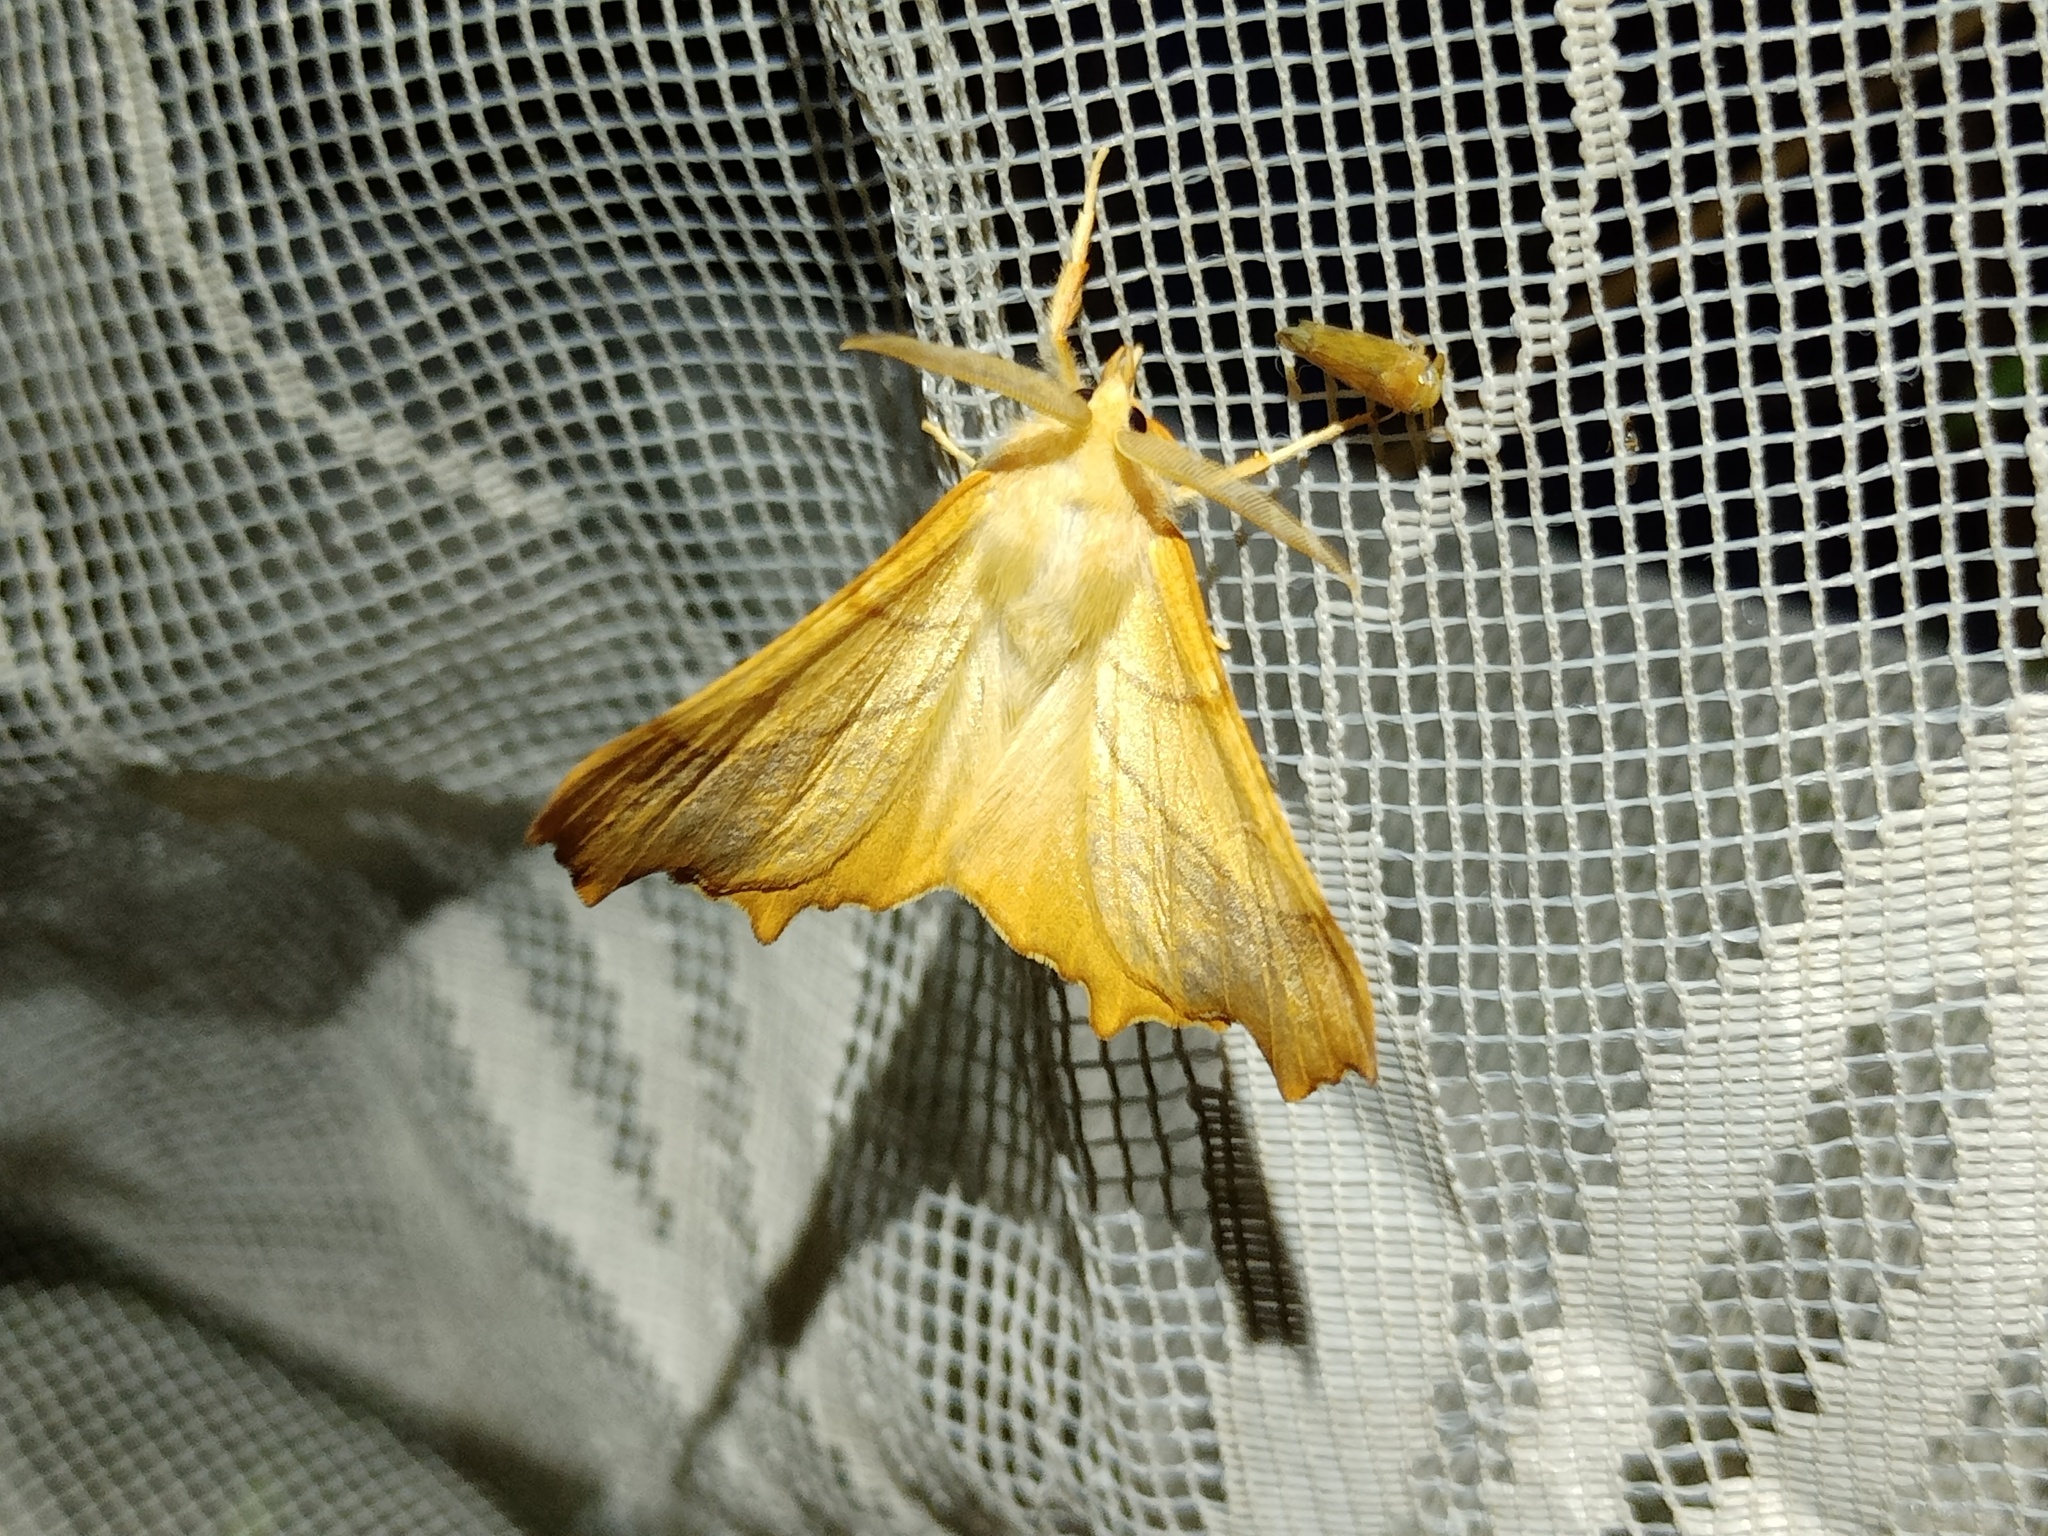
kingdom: Animalia
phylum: Arthropoda
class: Insecta
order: Lepidoptera
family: Geometridae
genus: Ennomos
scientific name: Ennomos fuscantaria
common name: Dusky thorn
